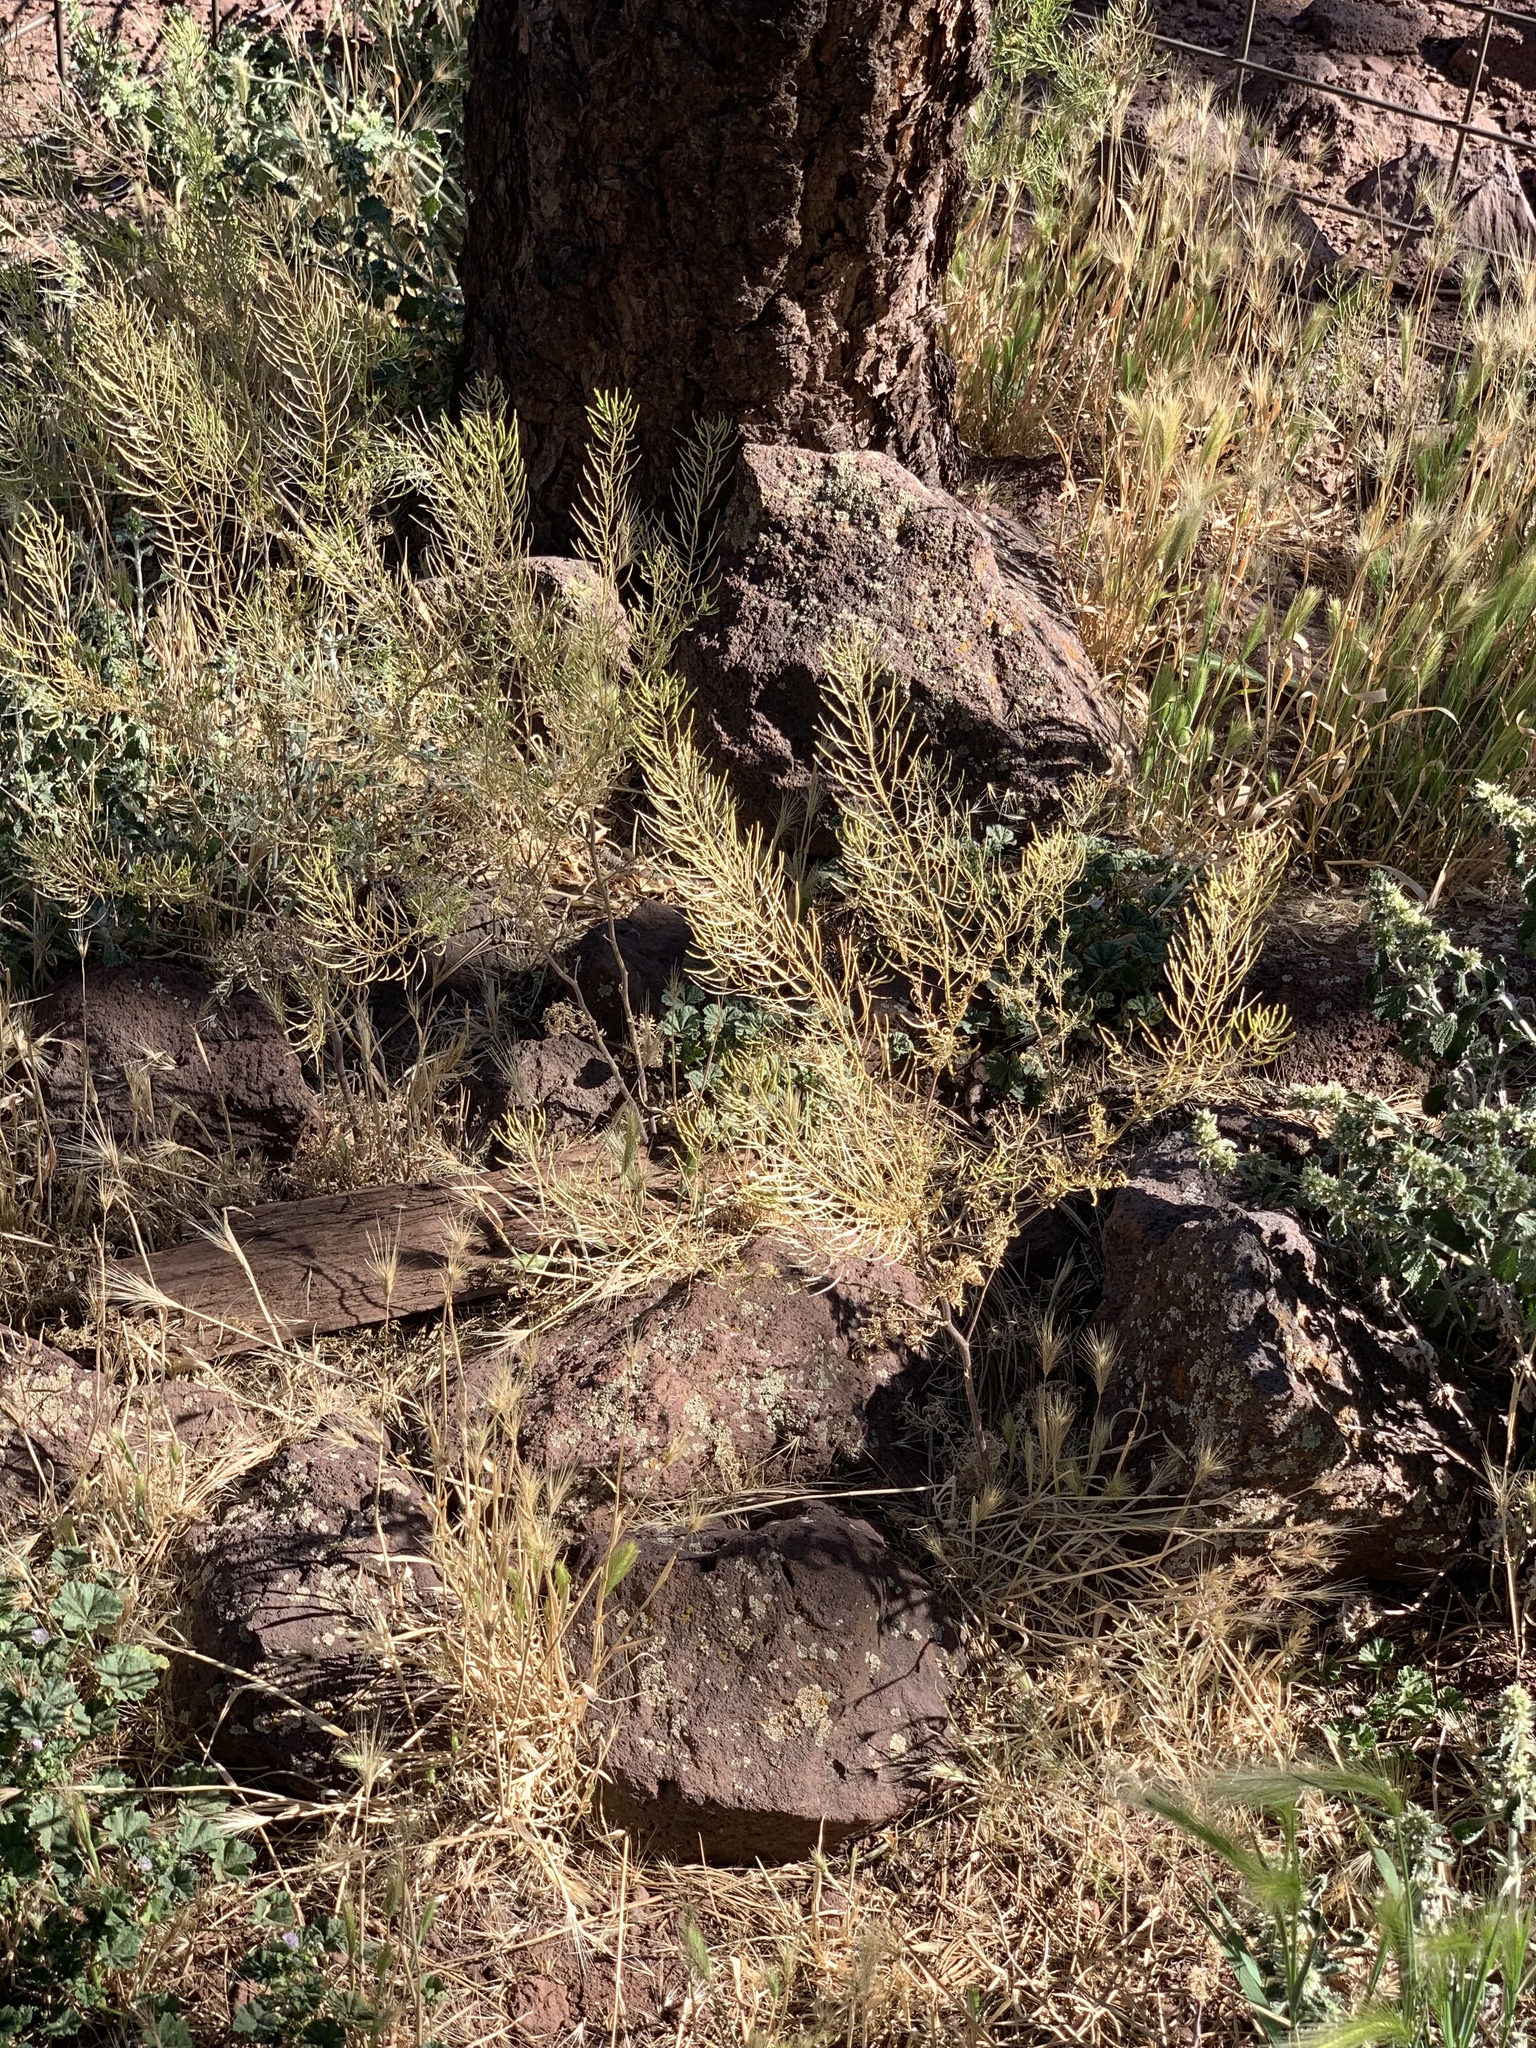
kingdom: Plantae
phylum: Tracheophyta
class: Magnoliopsida
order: Brassicales
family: Brassicaceae
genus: Sisymbrium
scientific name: Sisymbrium irio
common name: London rocket
